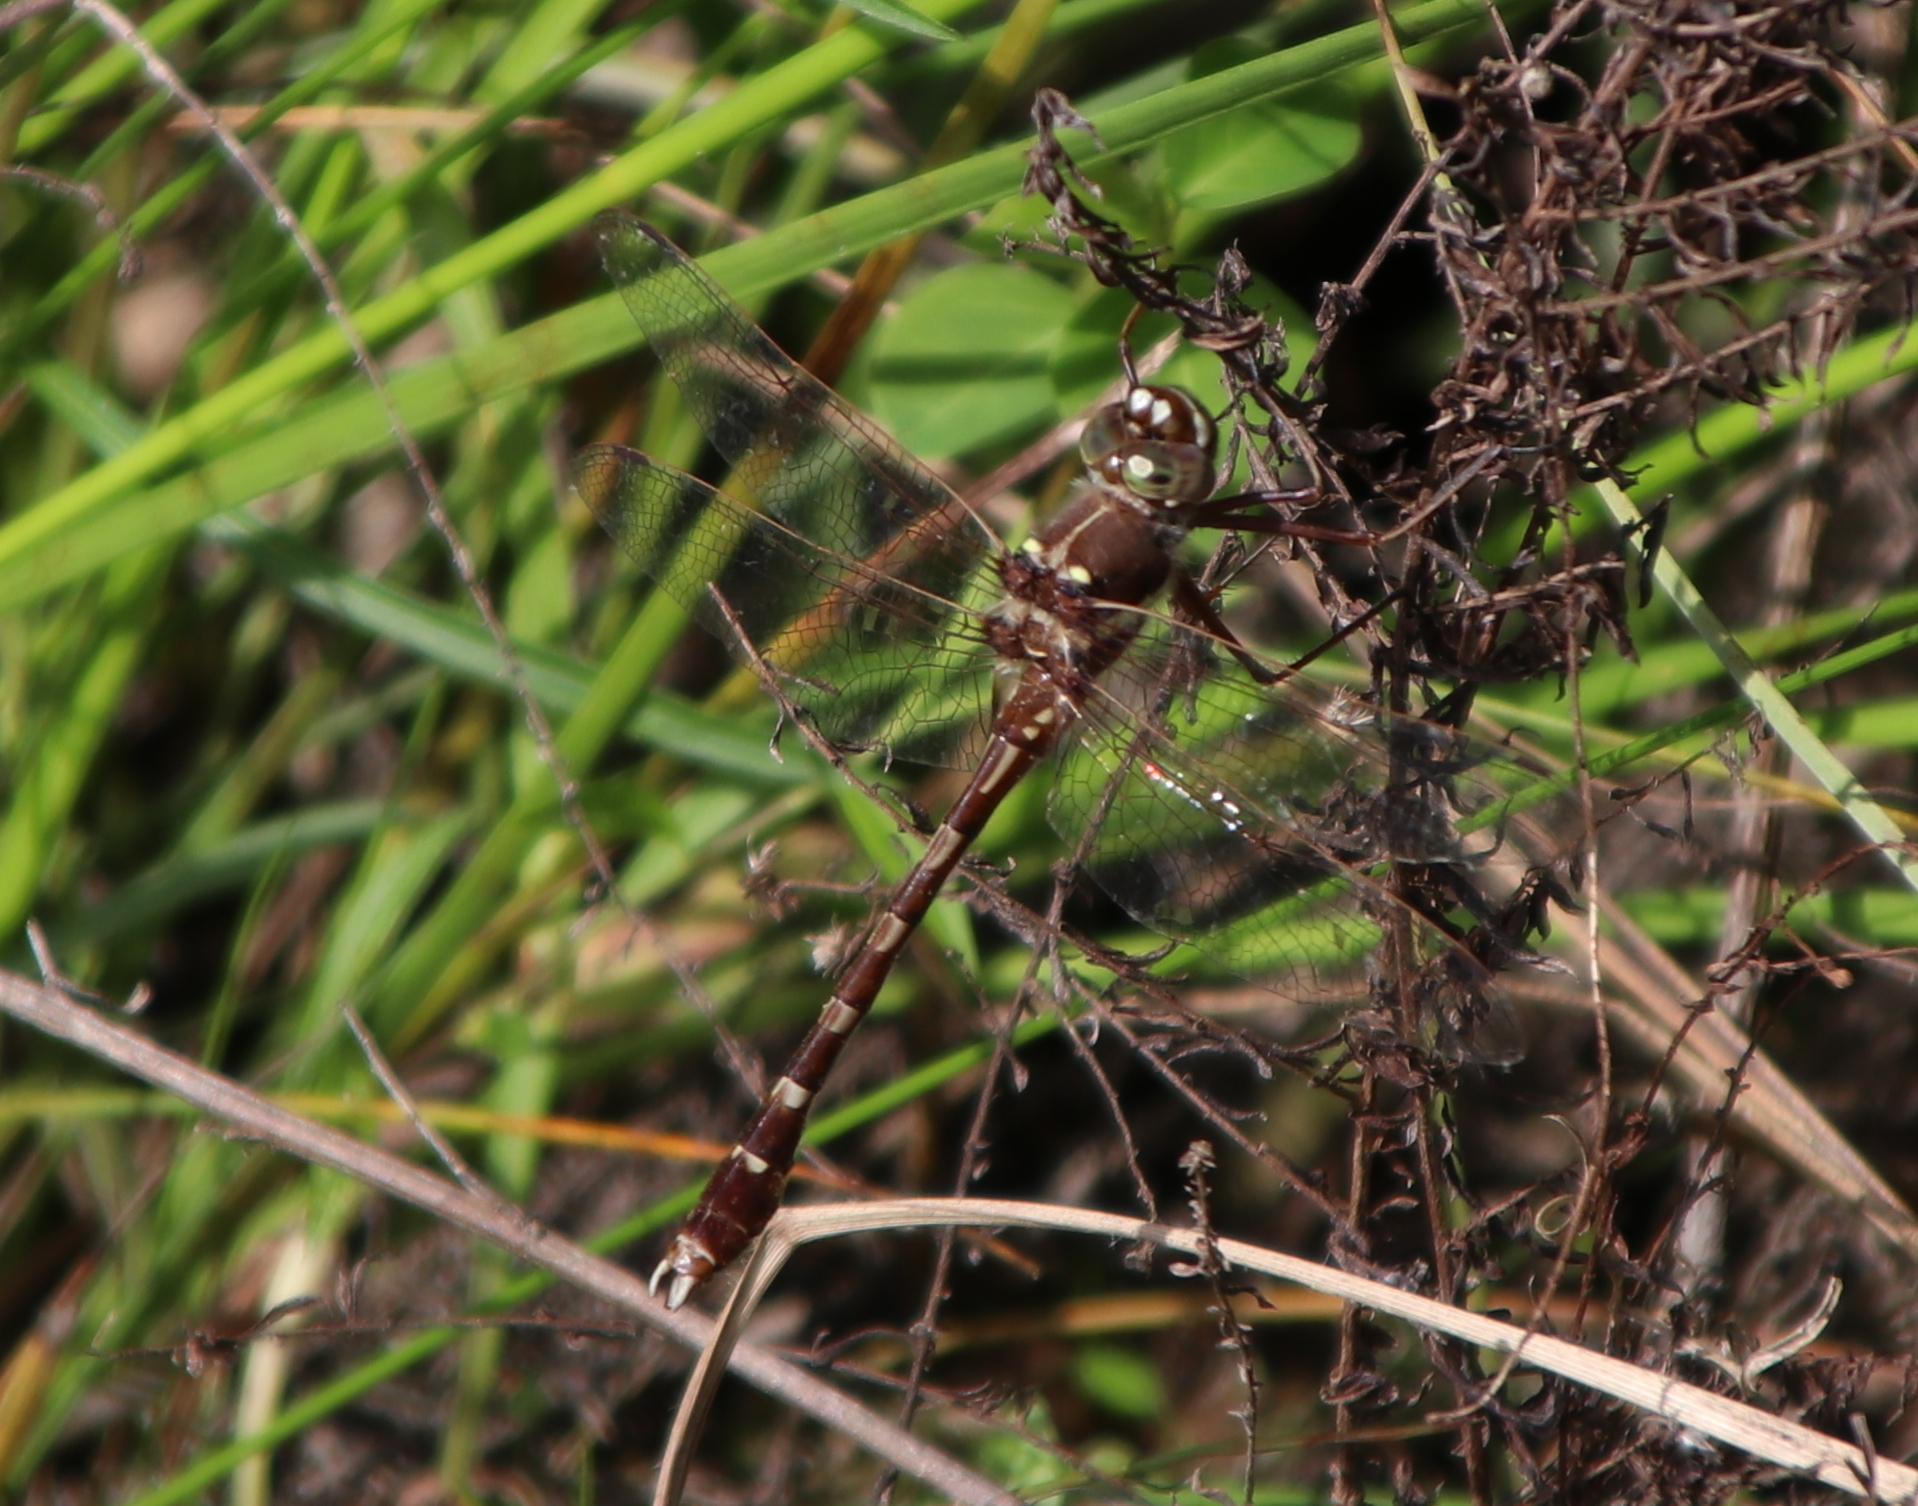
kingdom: Animalia
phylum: Arthropoda
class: Insecta
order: Odonata
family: Macromiidae
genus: Didymops
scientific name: Didymops transversa
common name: Stream cruiser
